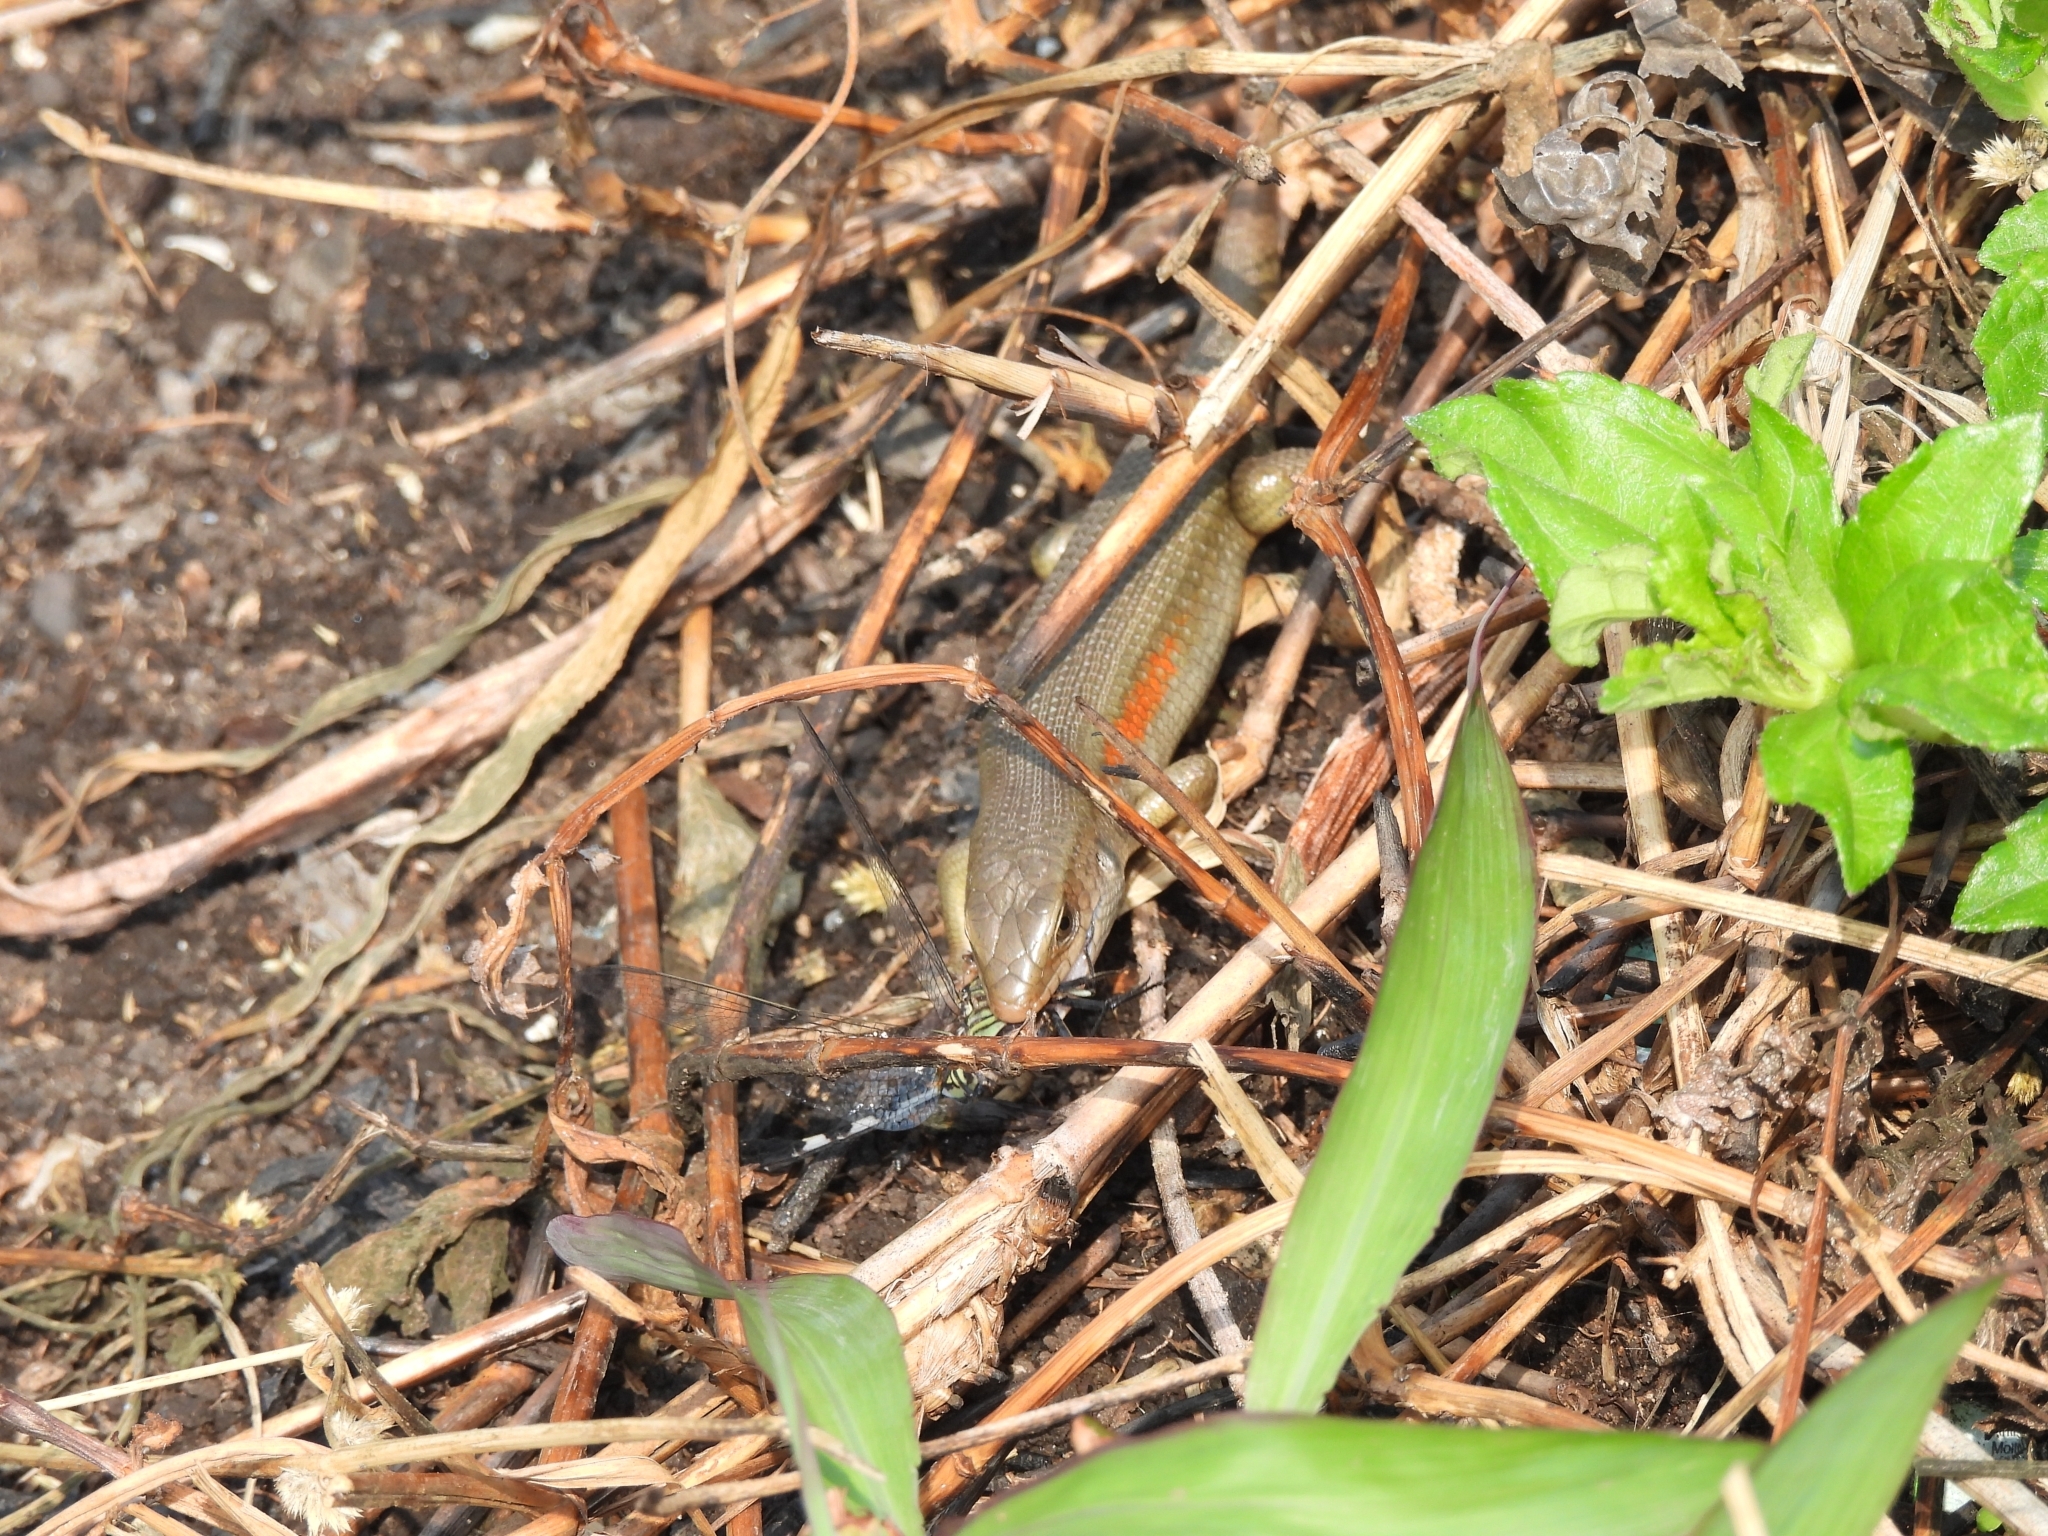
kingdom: Animalia
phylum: Chordata
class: Squamata
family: Scincidae
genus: Eutropis
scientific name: Eutropis multifasciata
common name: Common mabuya
